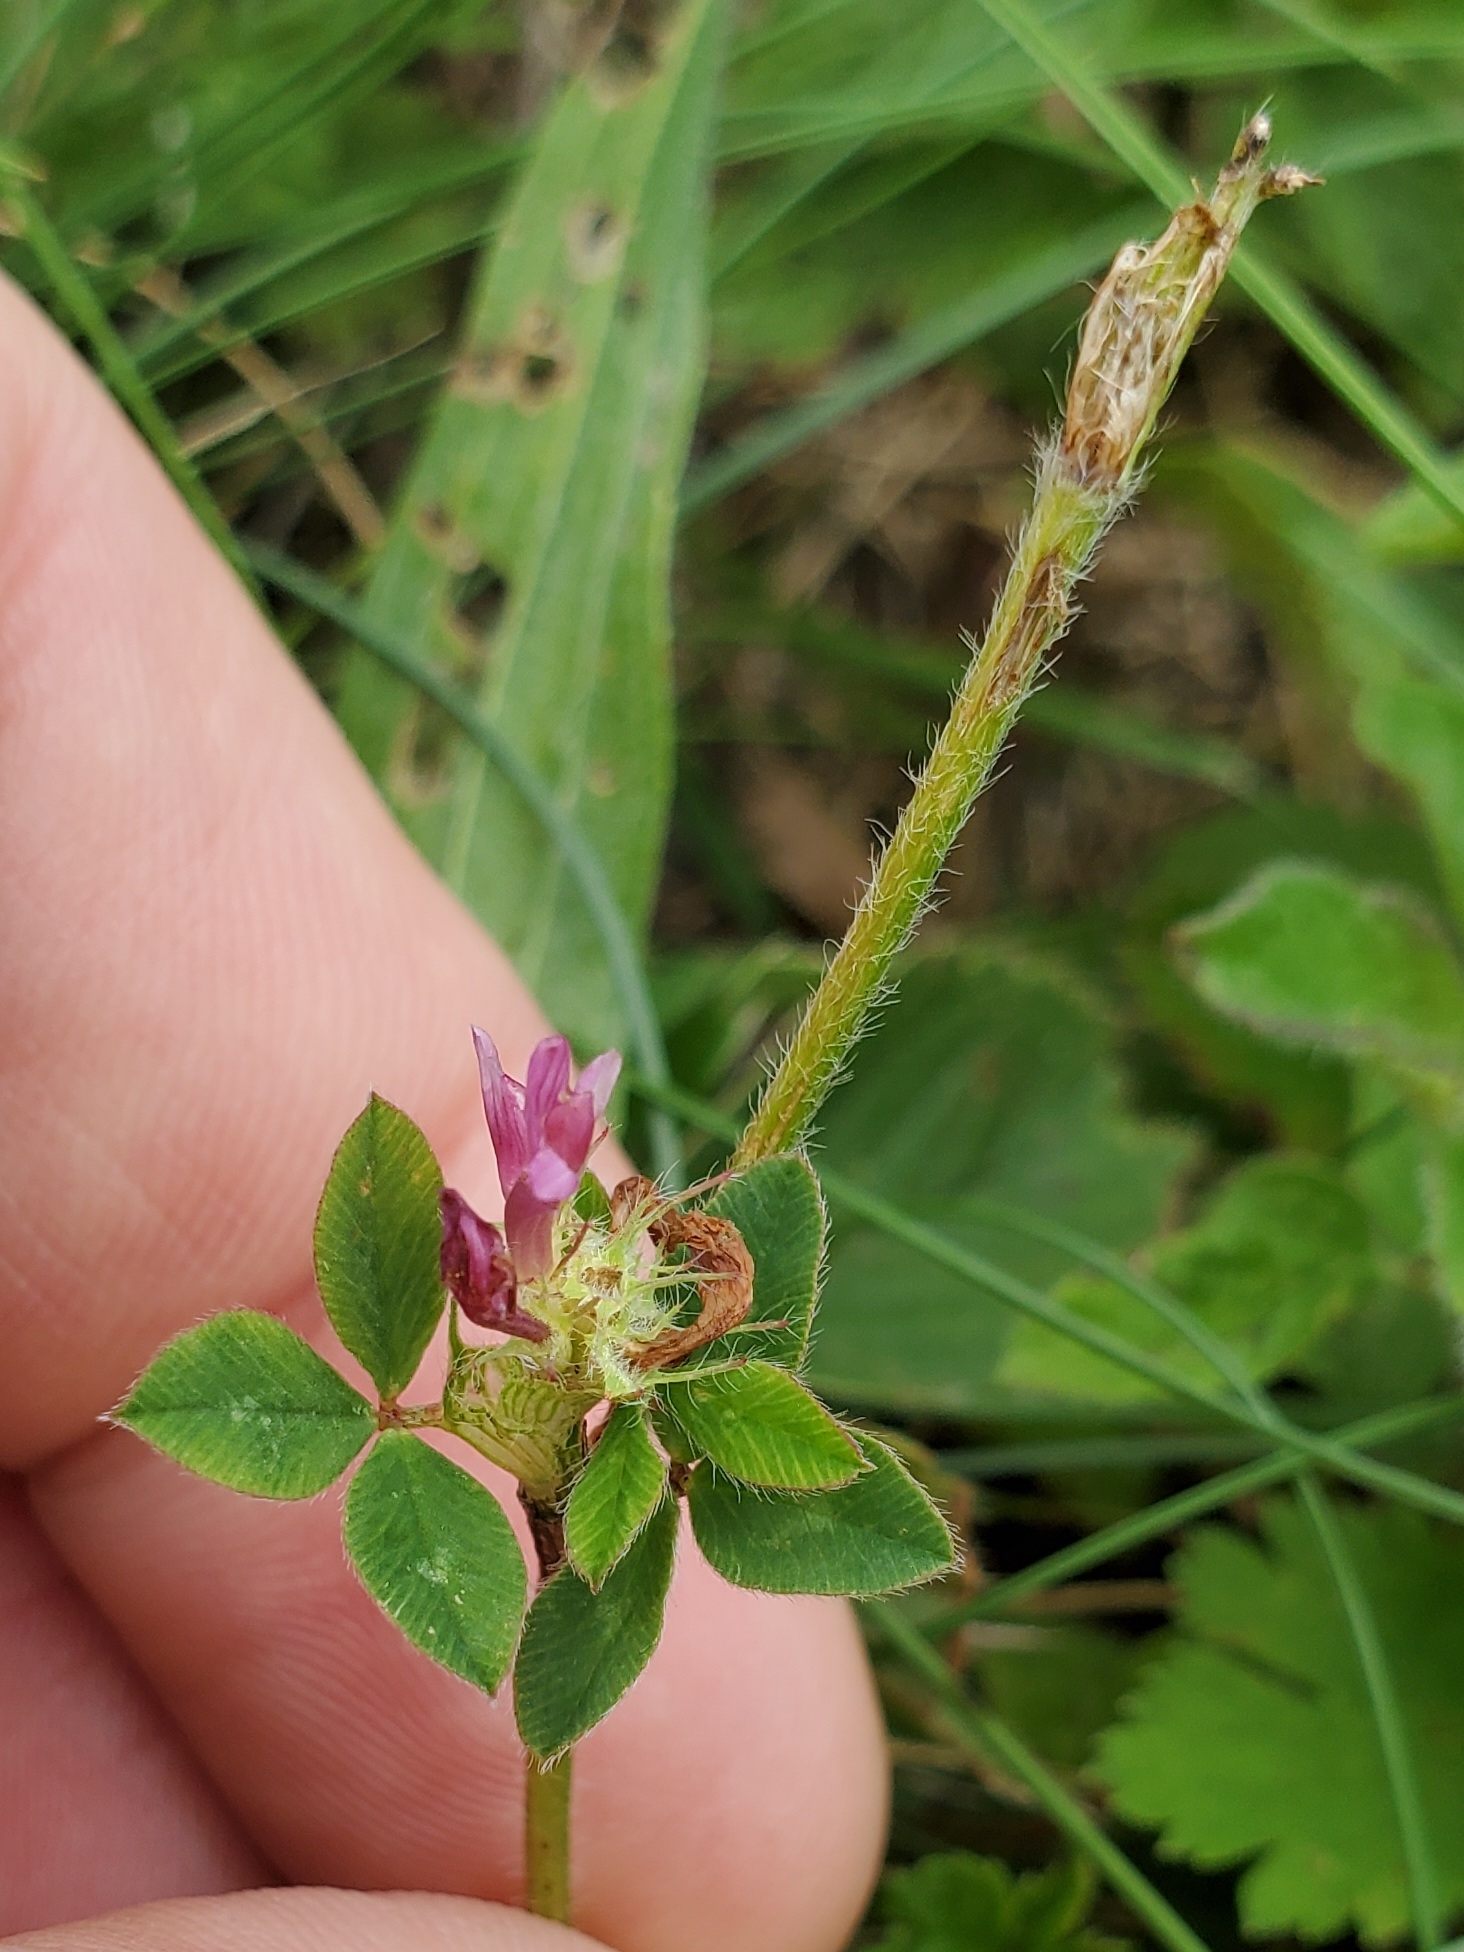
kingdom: Plantae
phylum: Tracheophyta
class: Magnoliopsida
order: Fabales
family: Fabaceae
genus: Trifolium
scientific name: Trifolium pratense
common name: Red clover
